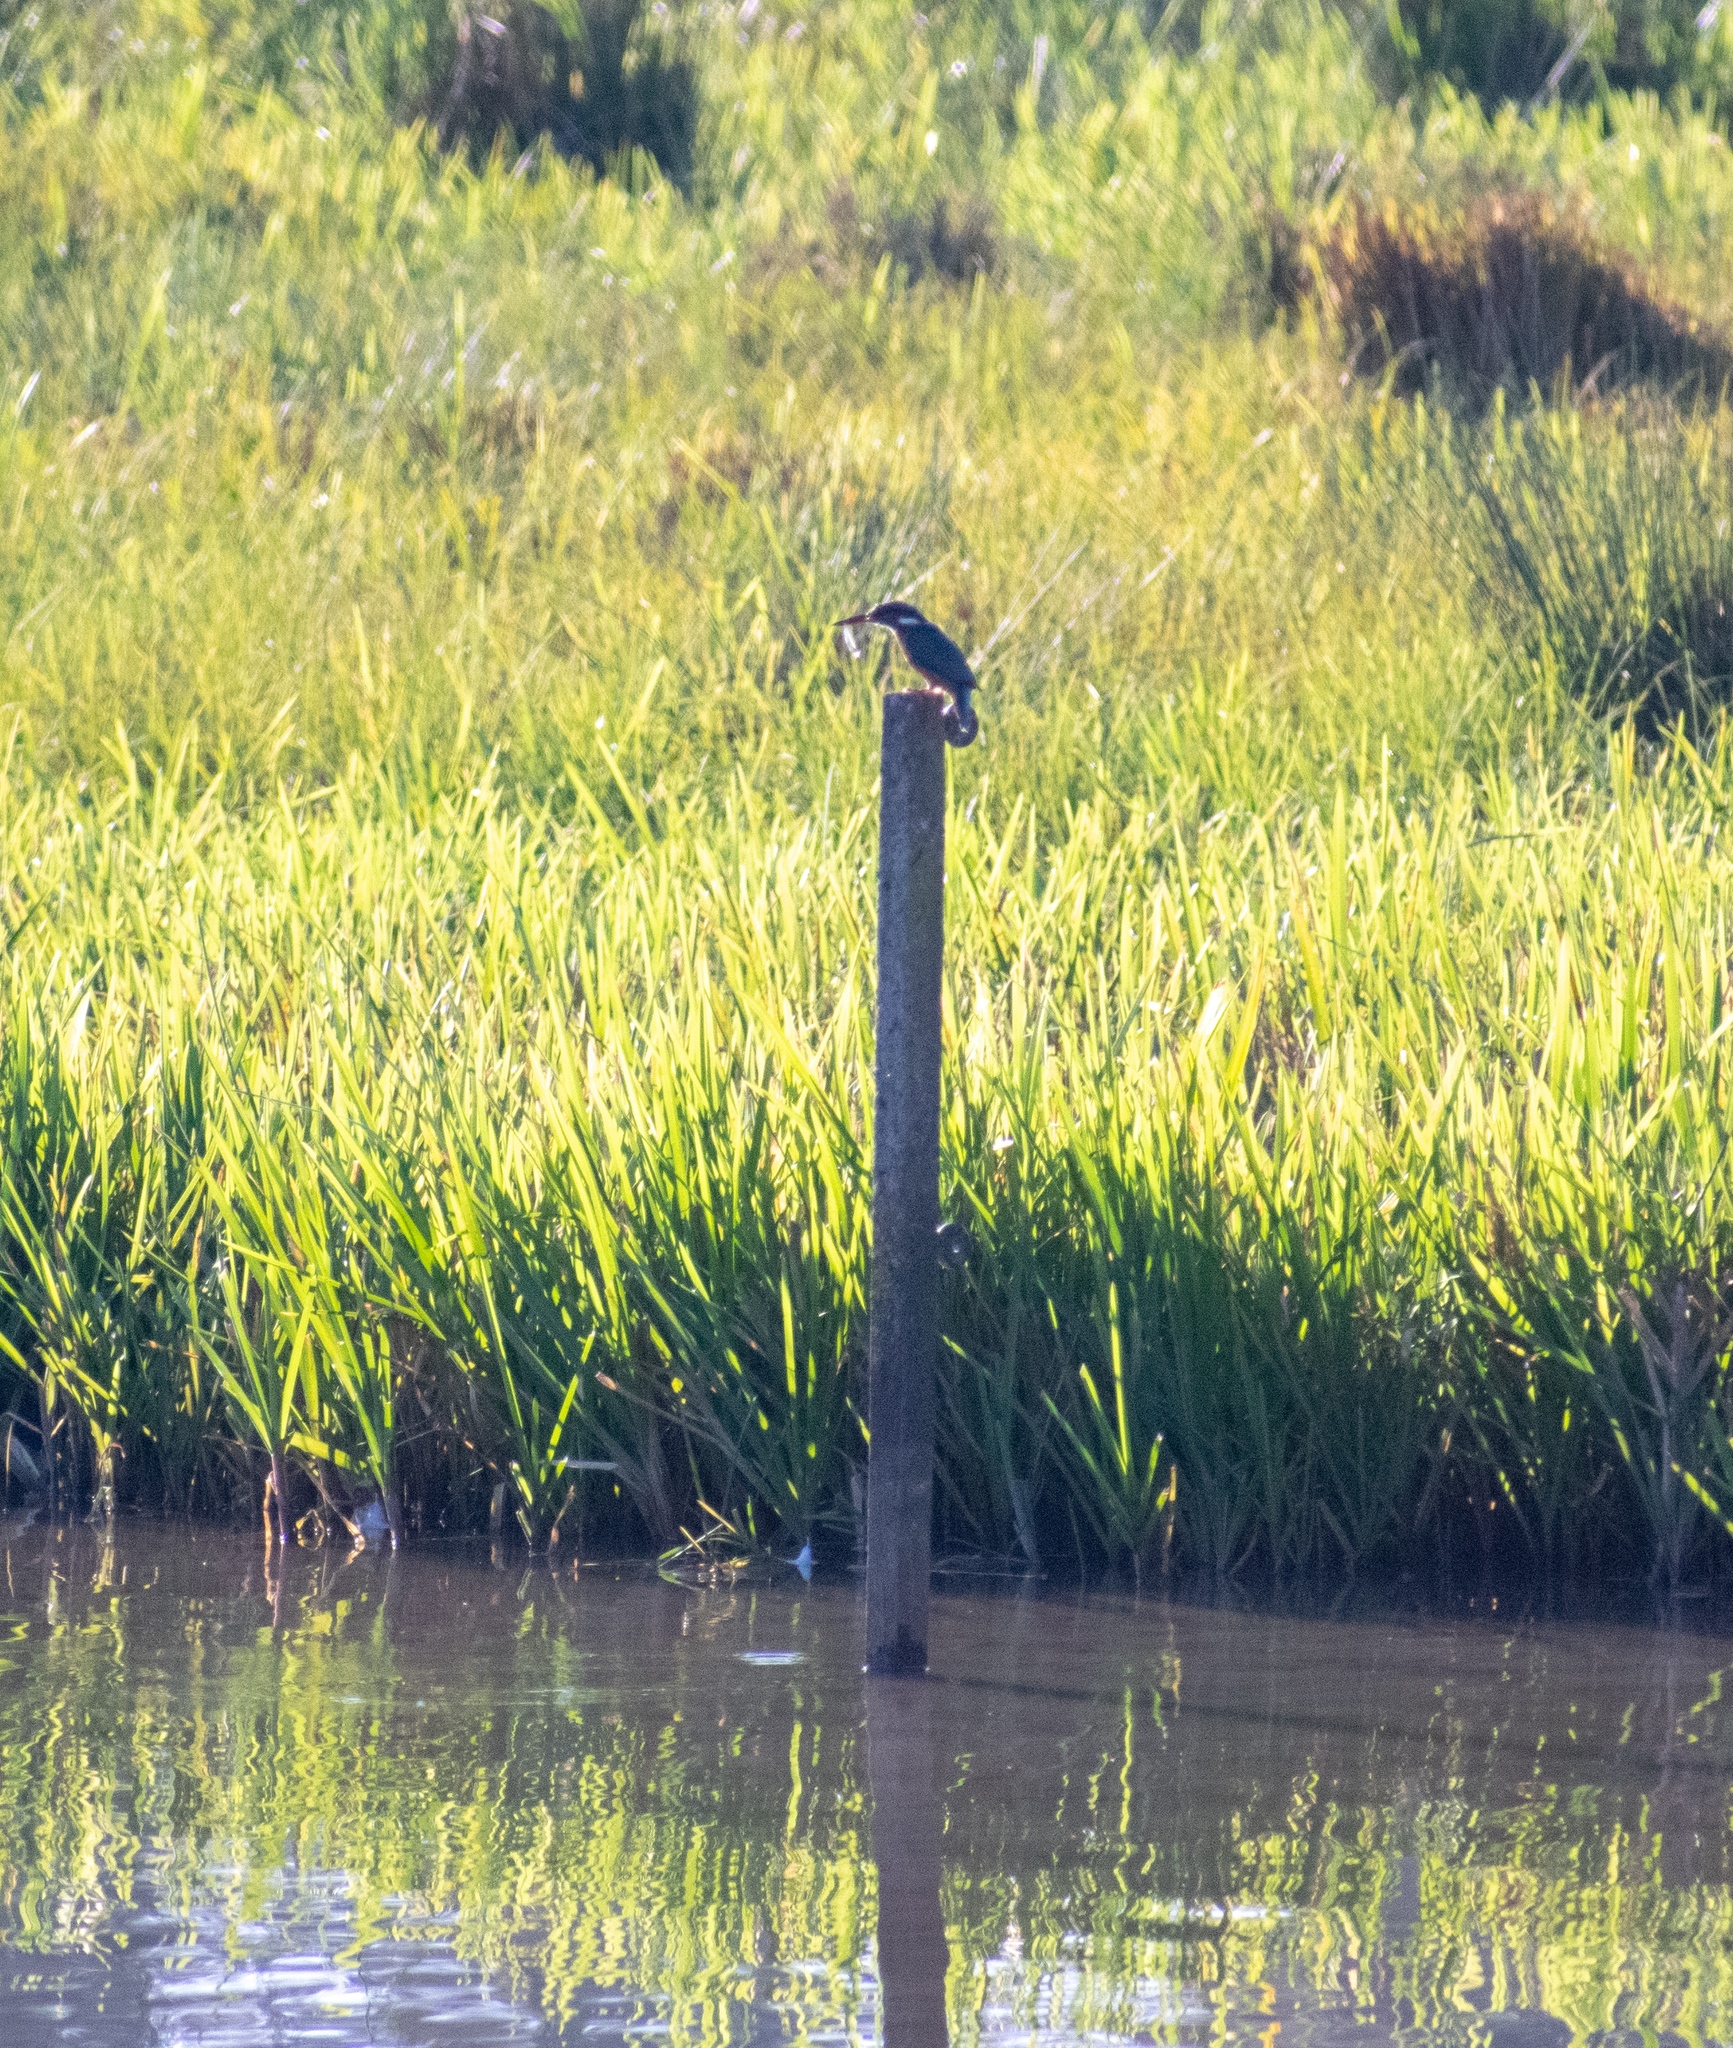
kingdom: Animalia
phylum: Chordata
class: Aves
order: Coraciiformes
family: Alcedinidae
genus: Alcedo
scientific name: Alcedo atthis
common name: Common kingfisher
